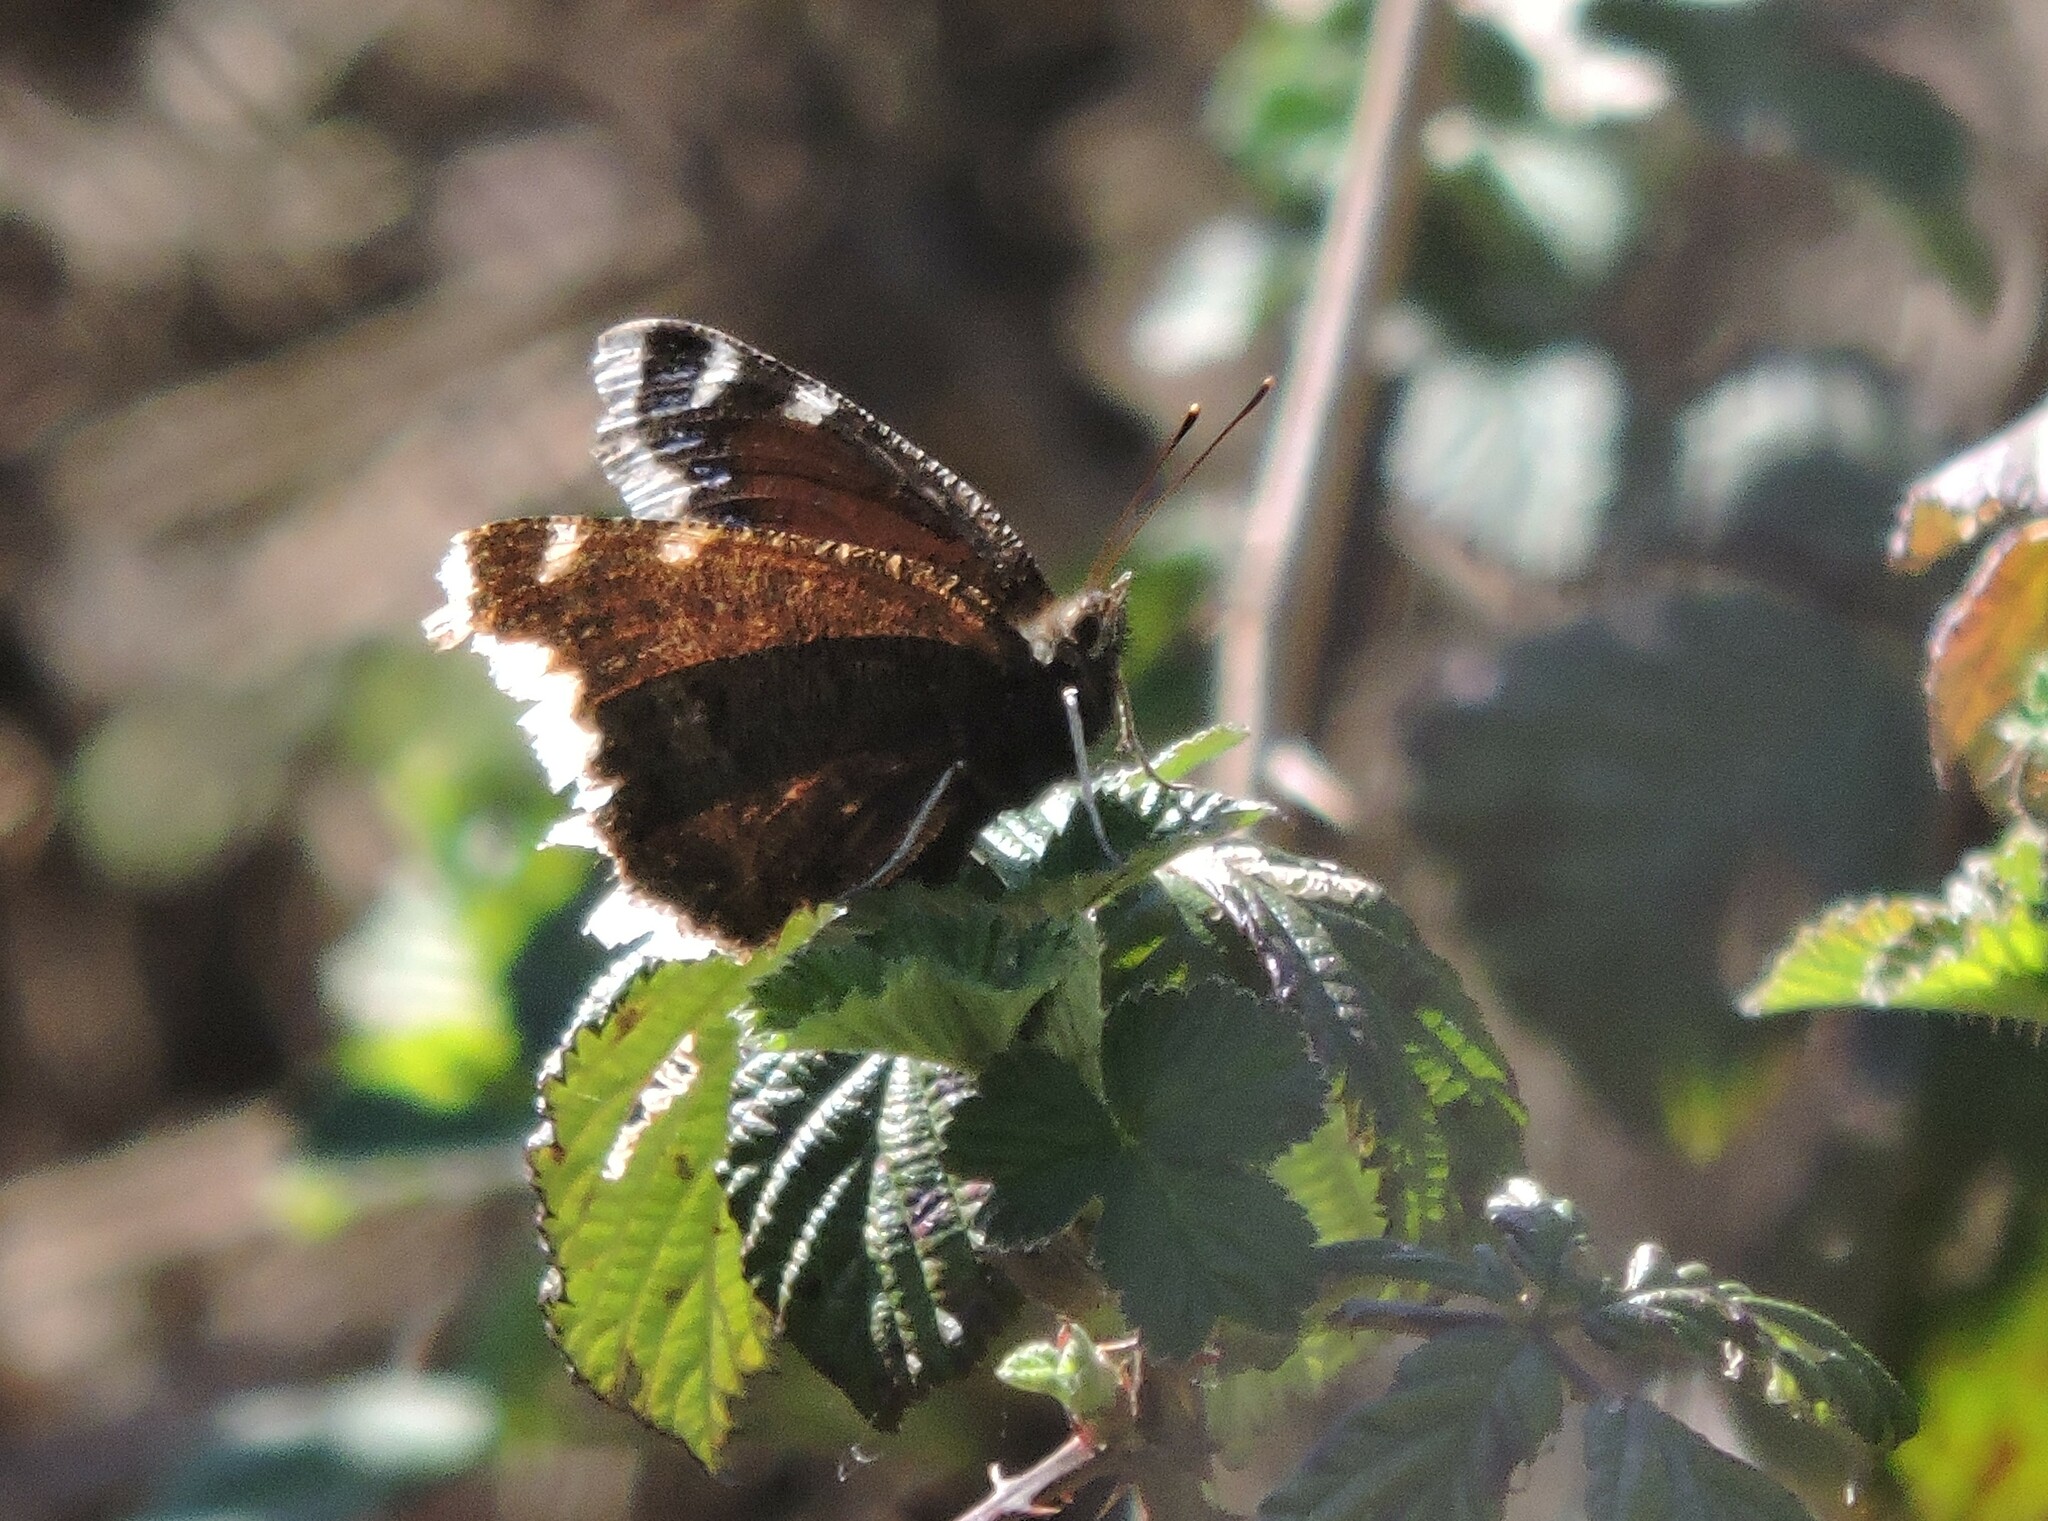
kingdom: Animalia
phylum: Arthropoda
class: Insecta
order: Lepidoptera
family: Nymphalidae
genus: Nymphalis
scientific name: Nymphalis antiopa
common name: Camberwell beauty
